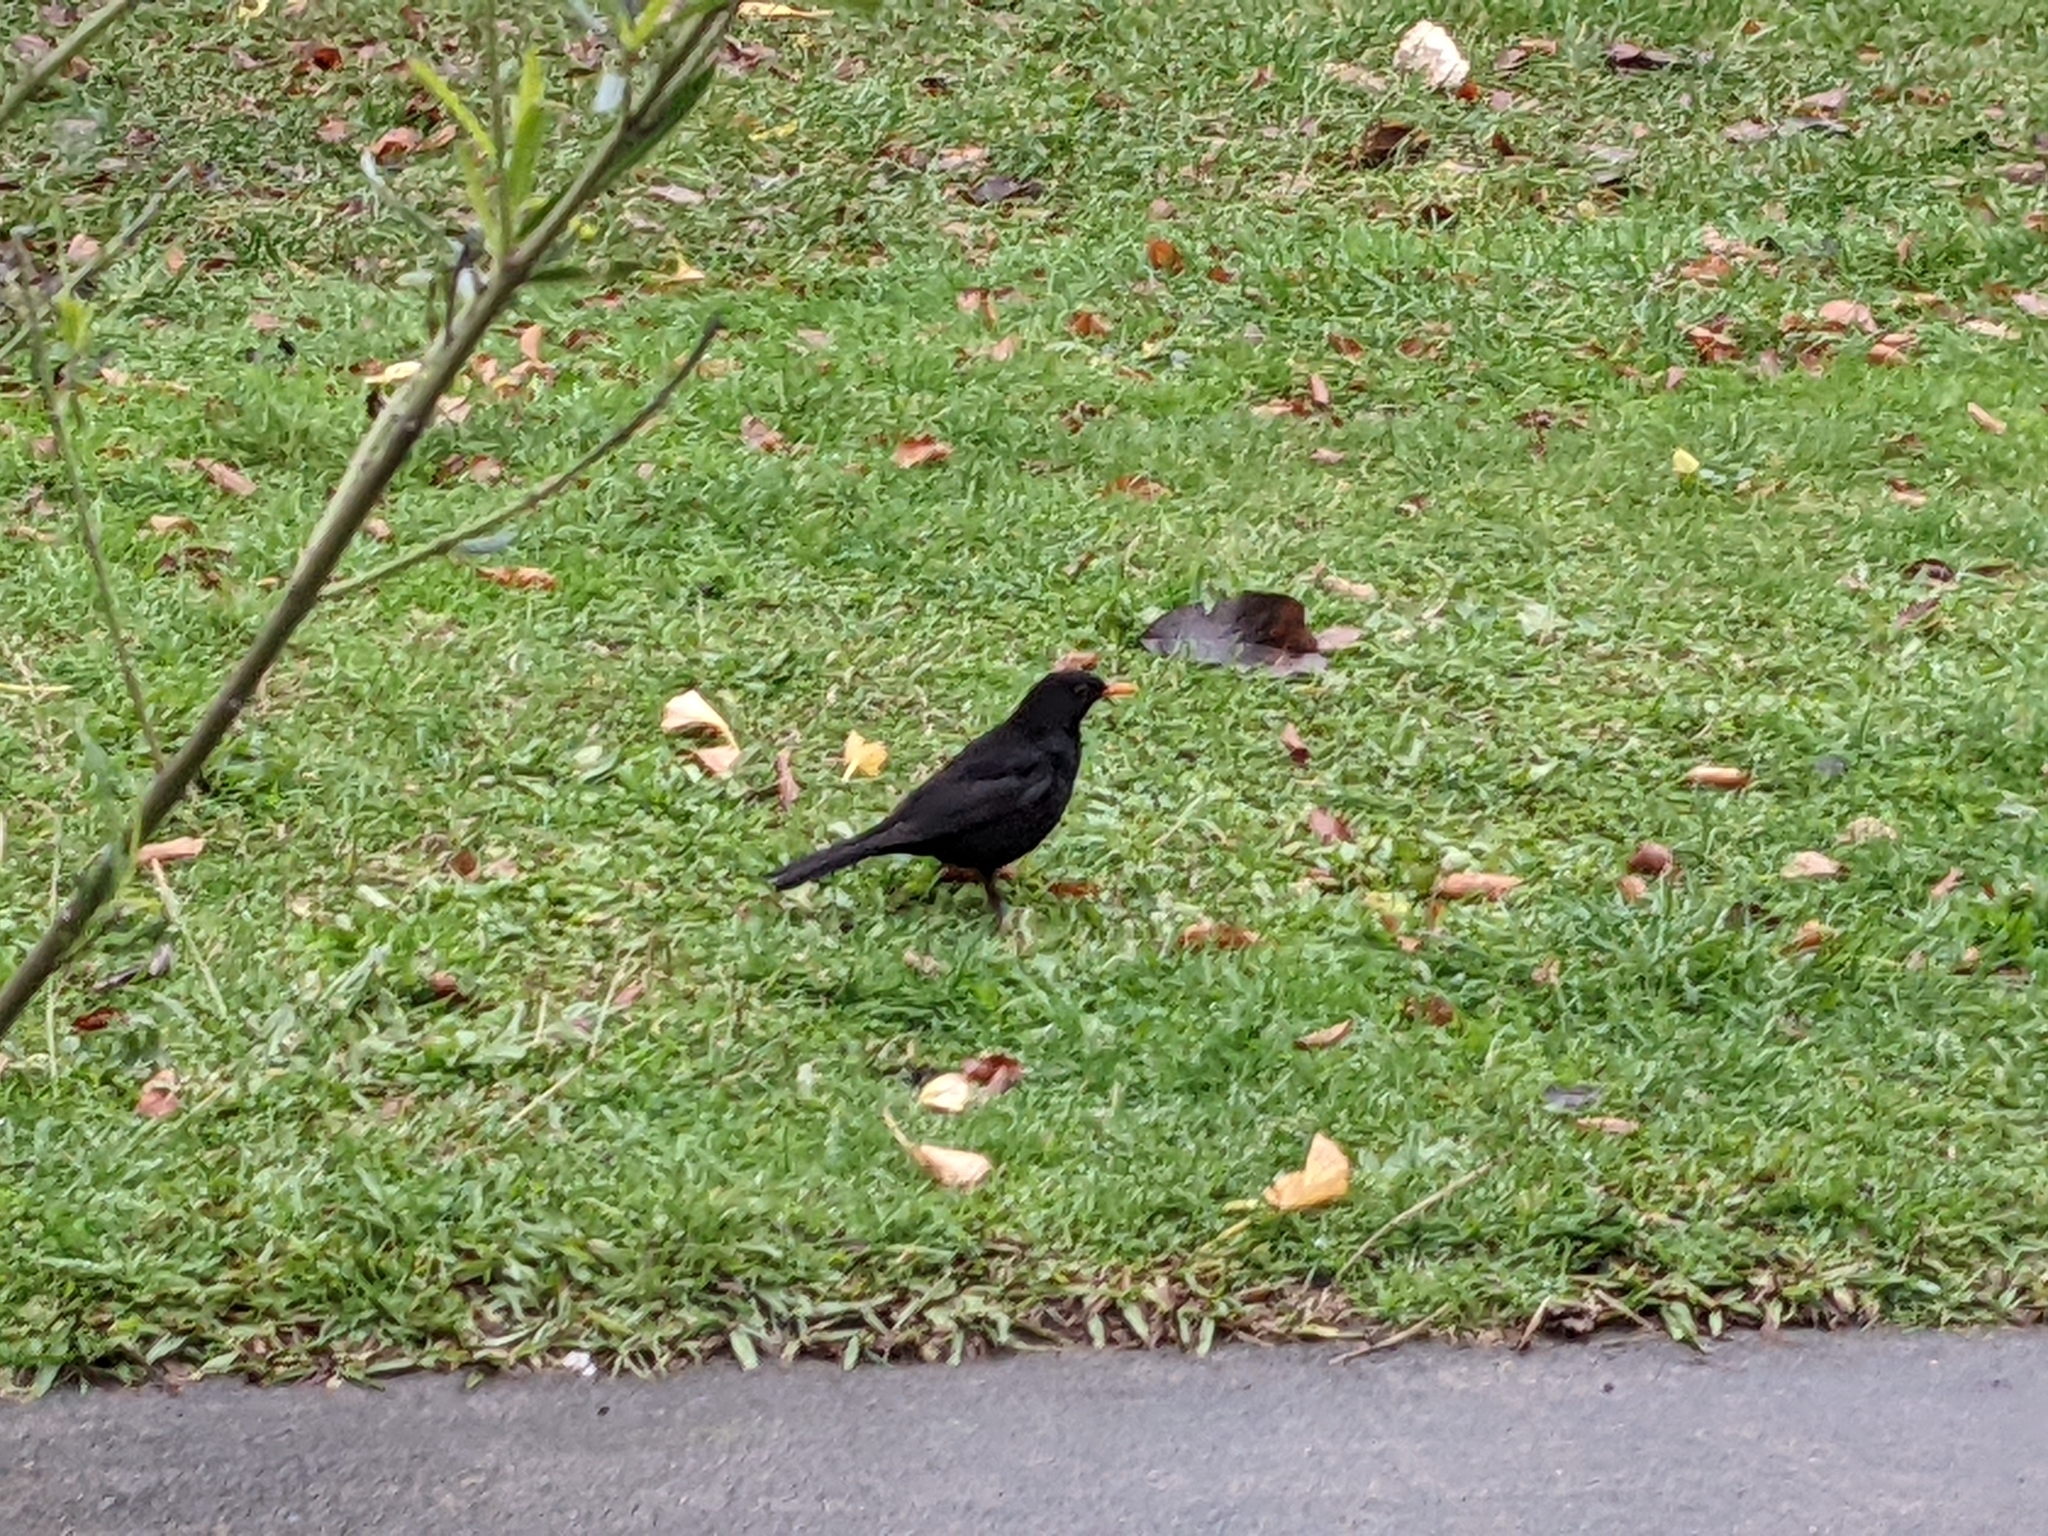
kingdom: Animalia
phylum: Chordata
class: Aves
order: Passeriformes
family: Turdidae
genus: Turdus
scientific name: Turdus merula
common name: Common blackbird
